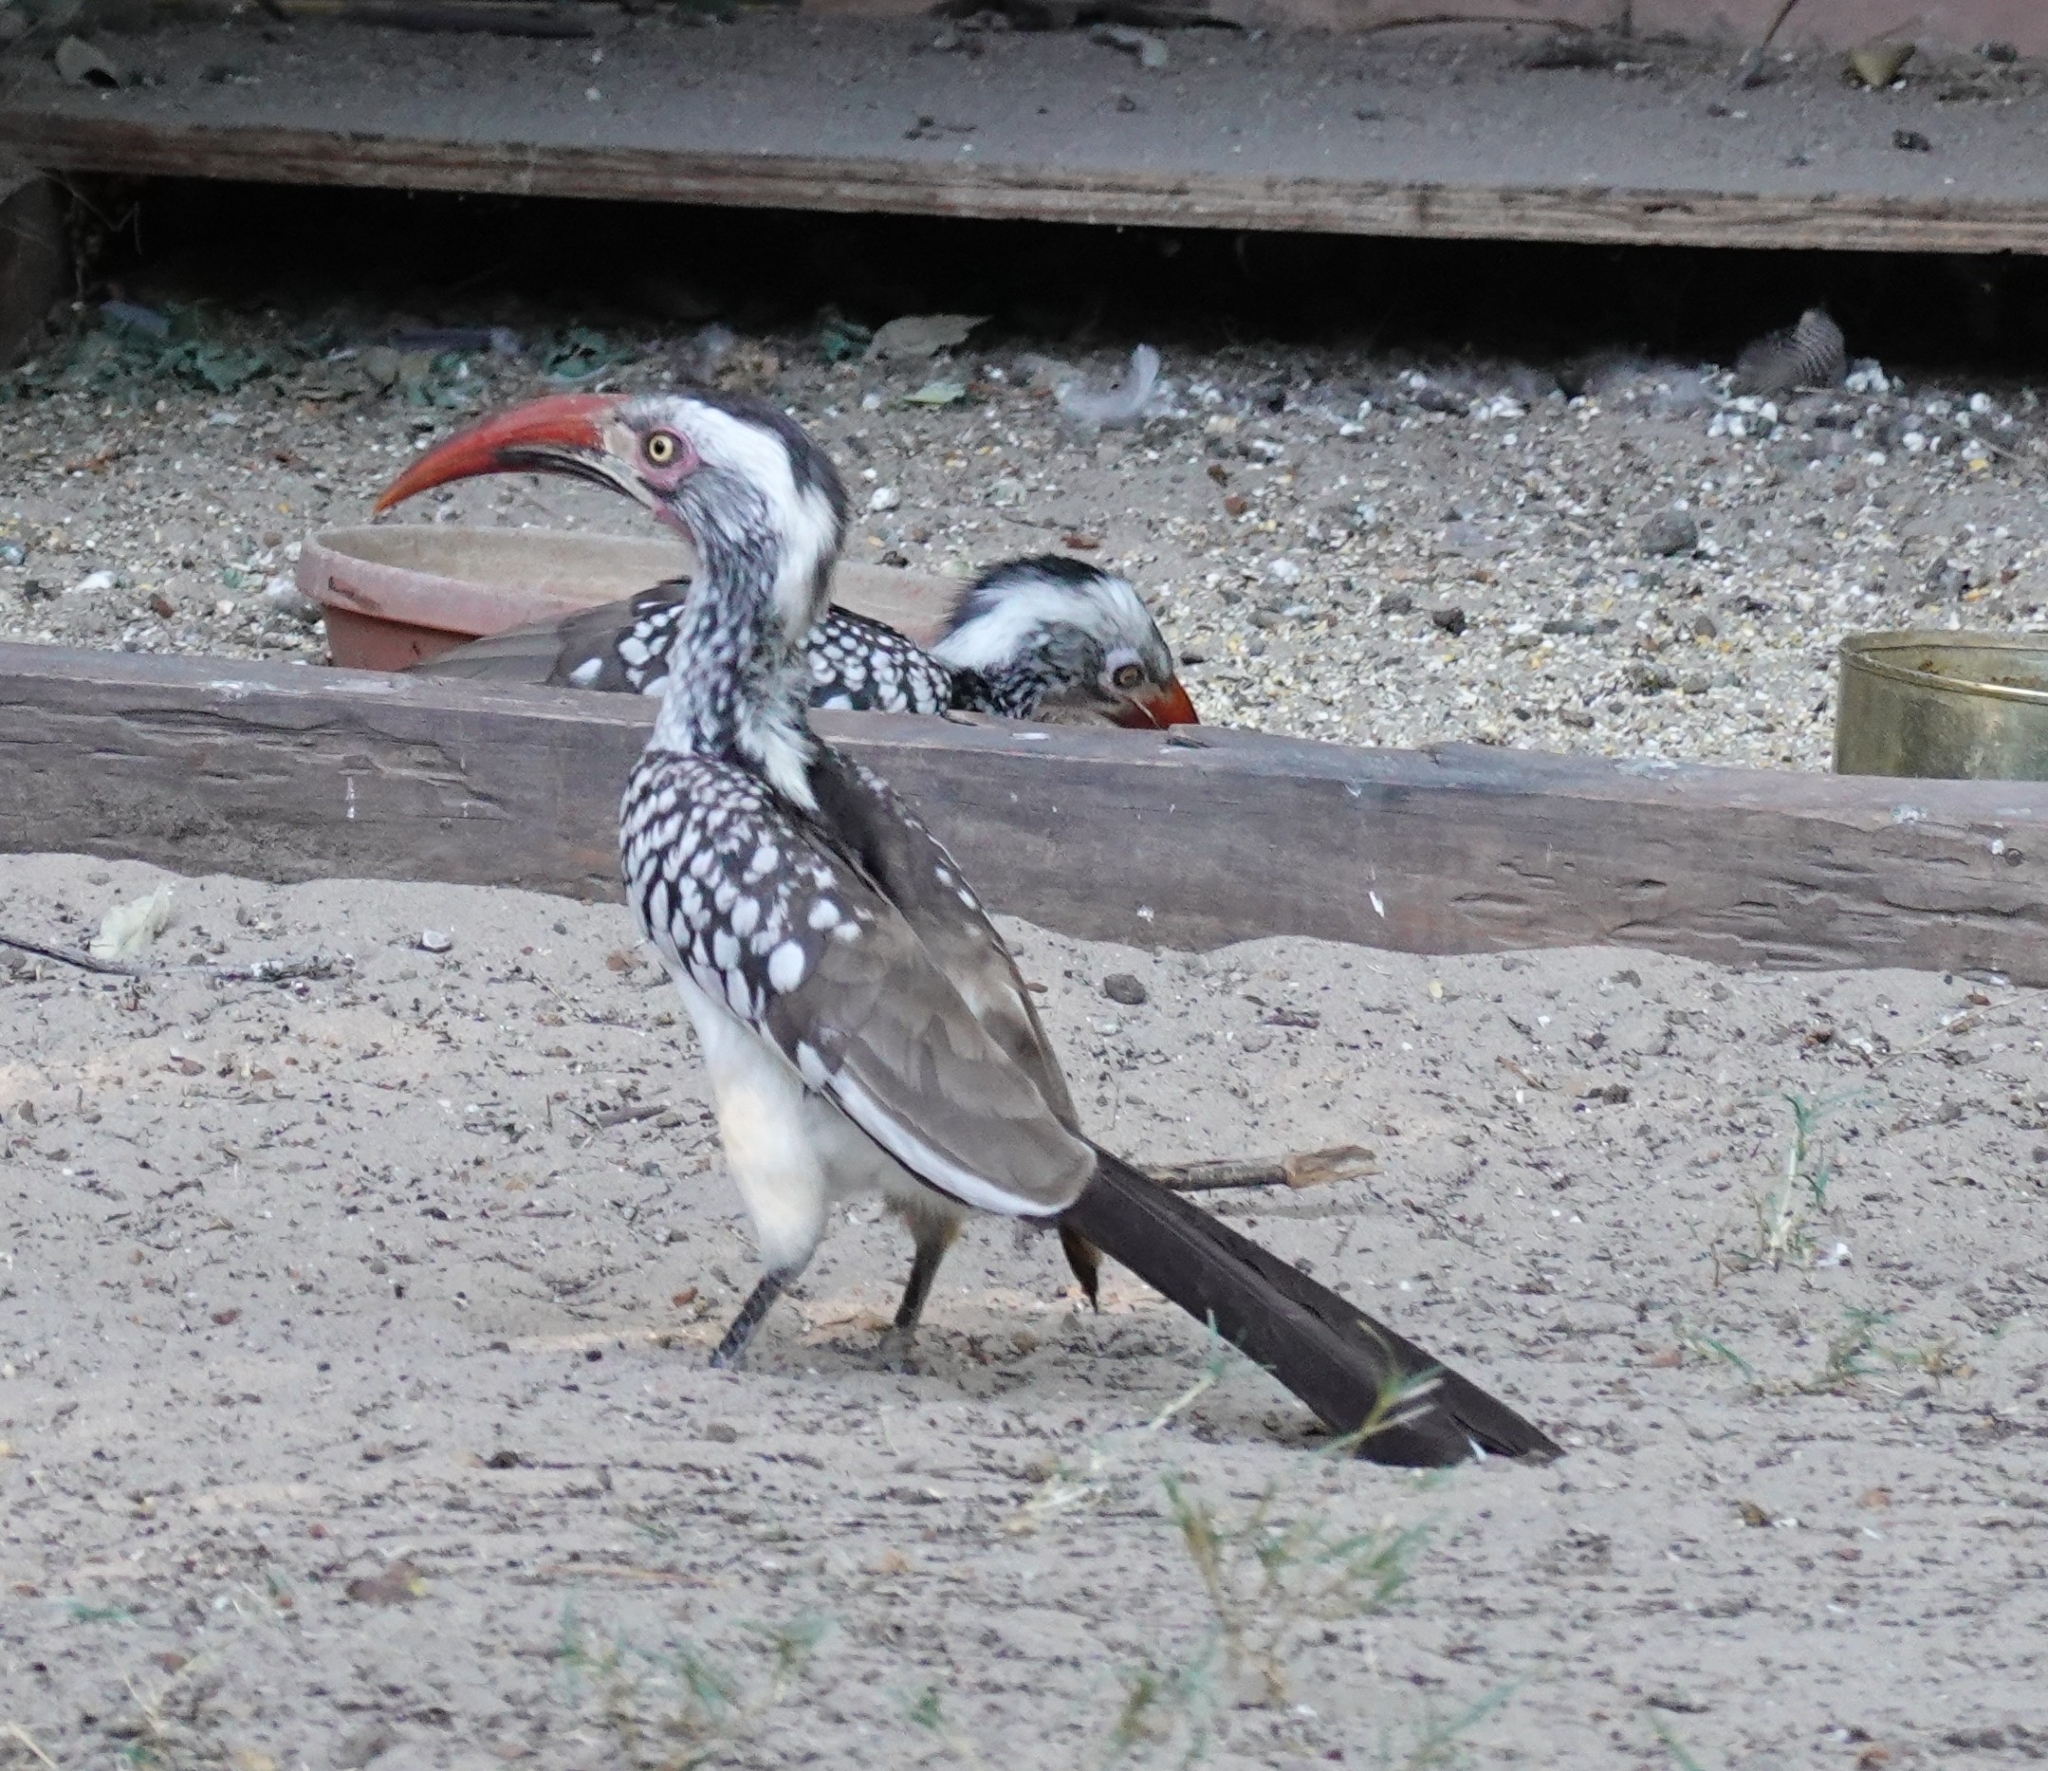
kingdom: Animalia
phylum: Chordata
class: Aves
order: Bucerotiformes
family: Bucerotidae
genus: Tockus
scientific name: Tockus rufirostris
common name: Southern red-billed hornbill
